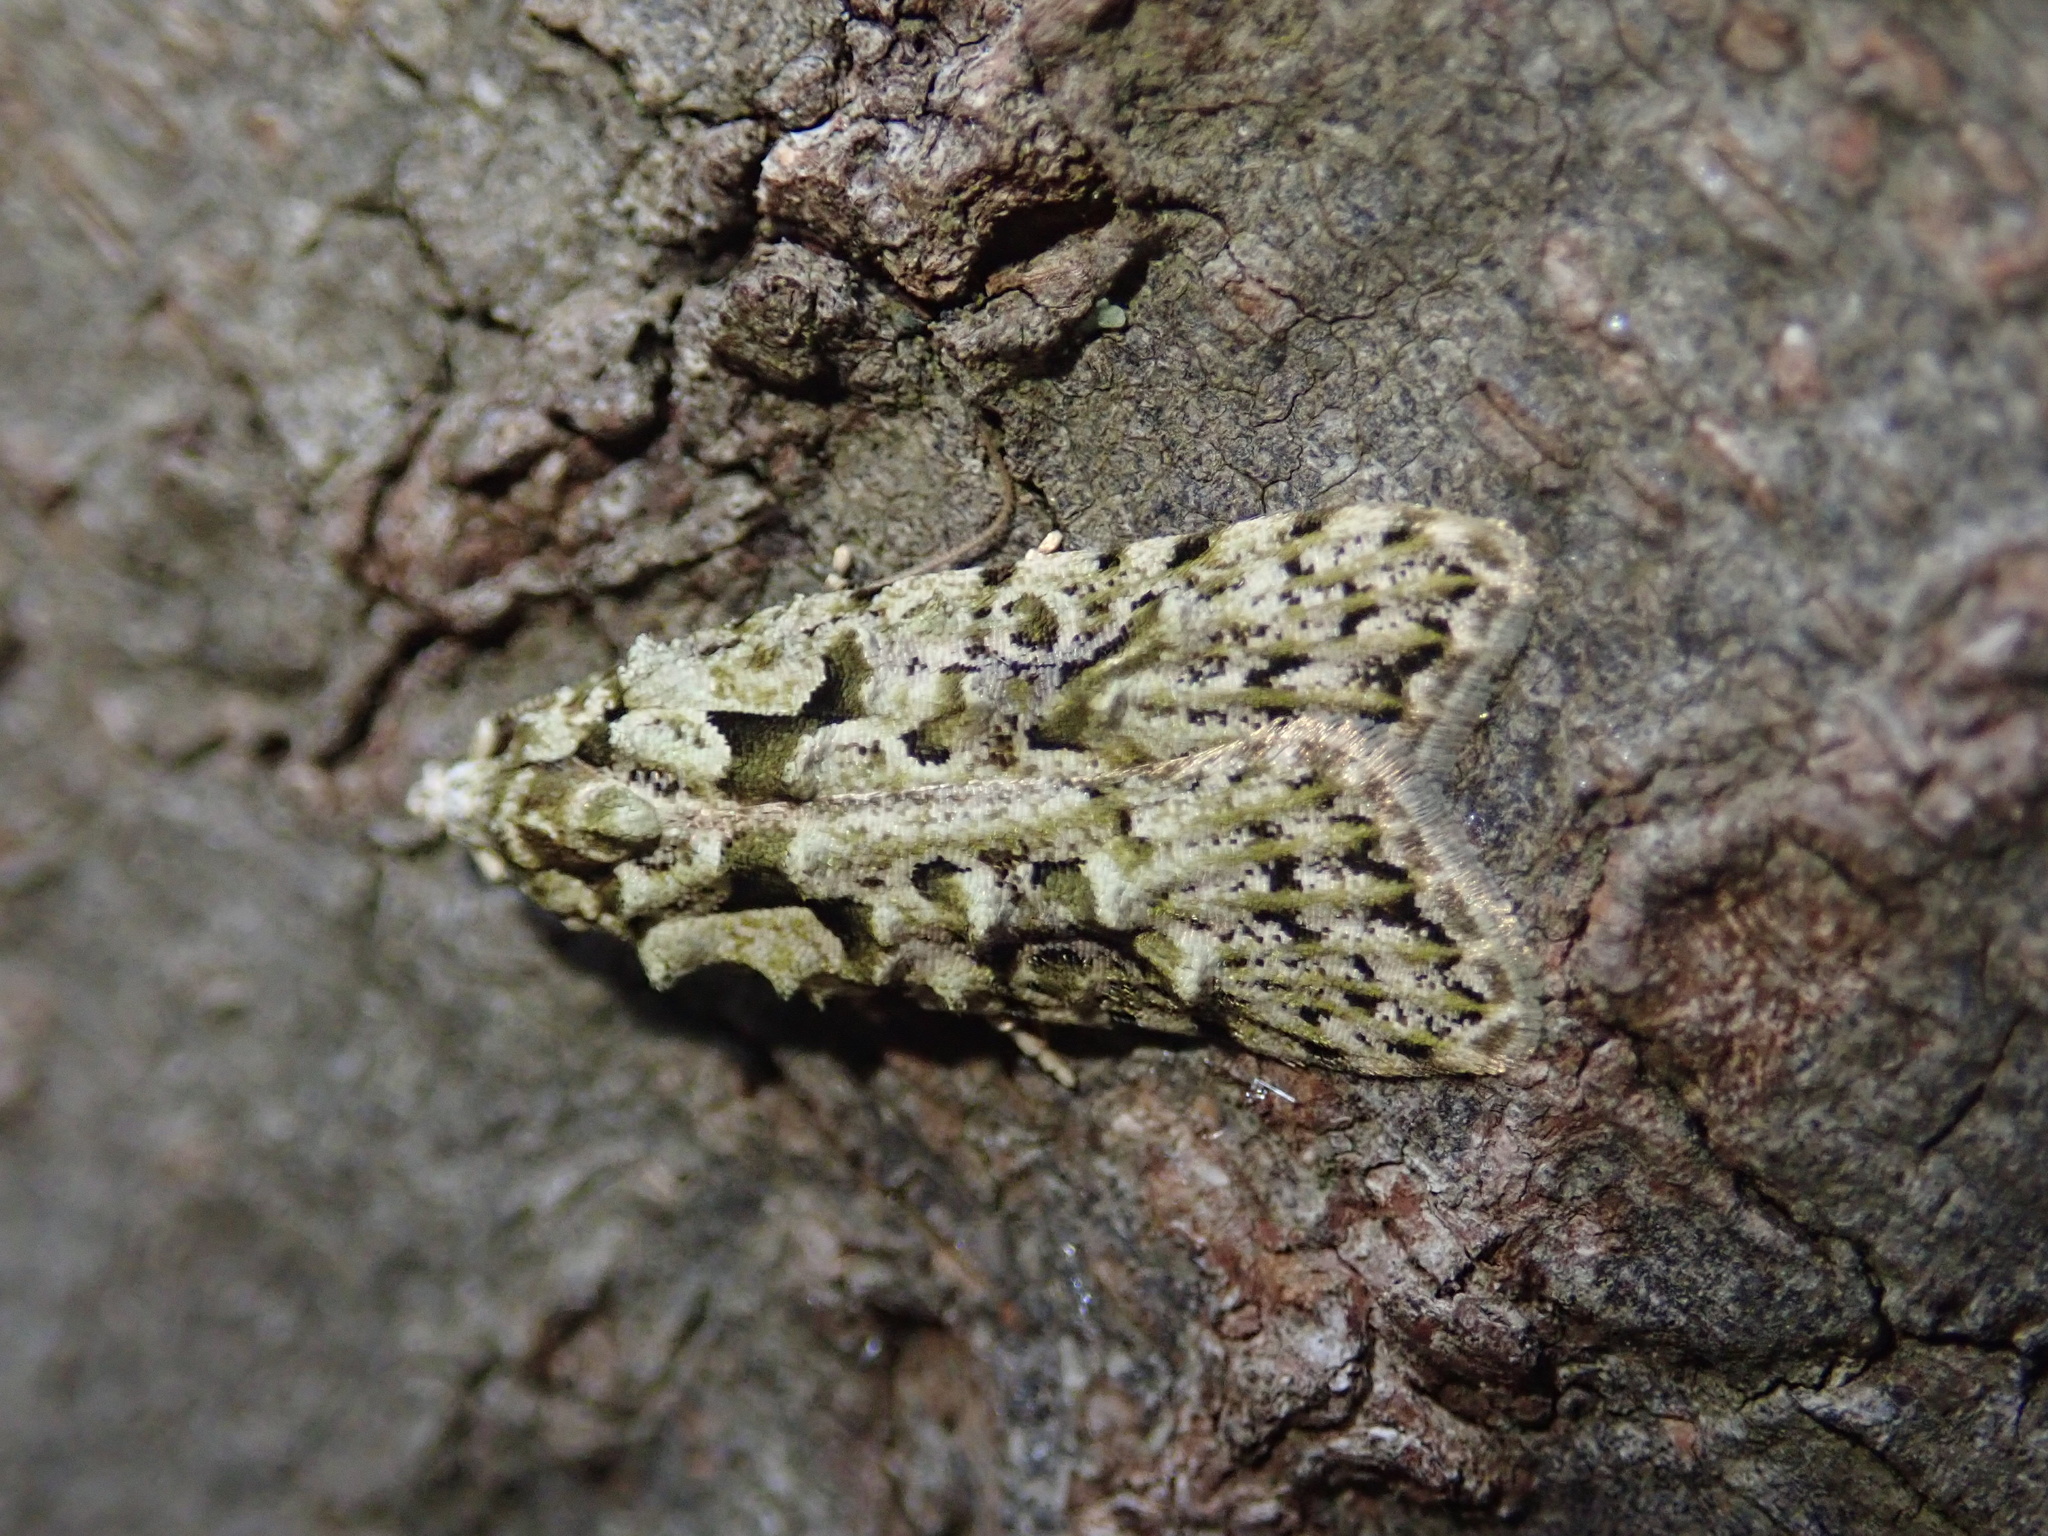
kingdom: Animalia
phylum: Arthropoda
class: Insecta
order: Lepidoptera
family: Carposinidae
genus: Carposina
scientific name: Carposina Heterocrossa eriphylla
